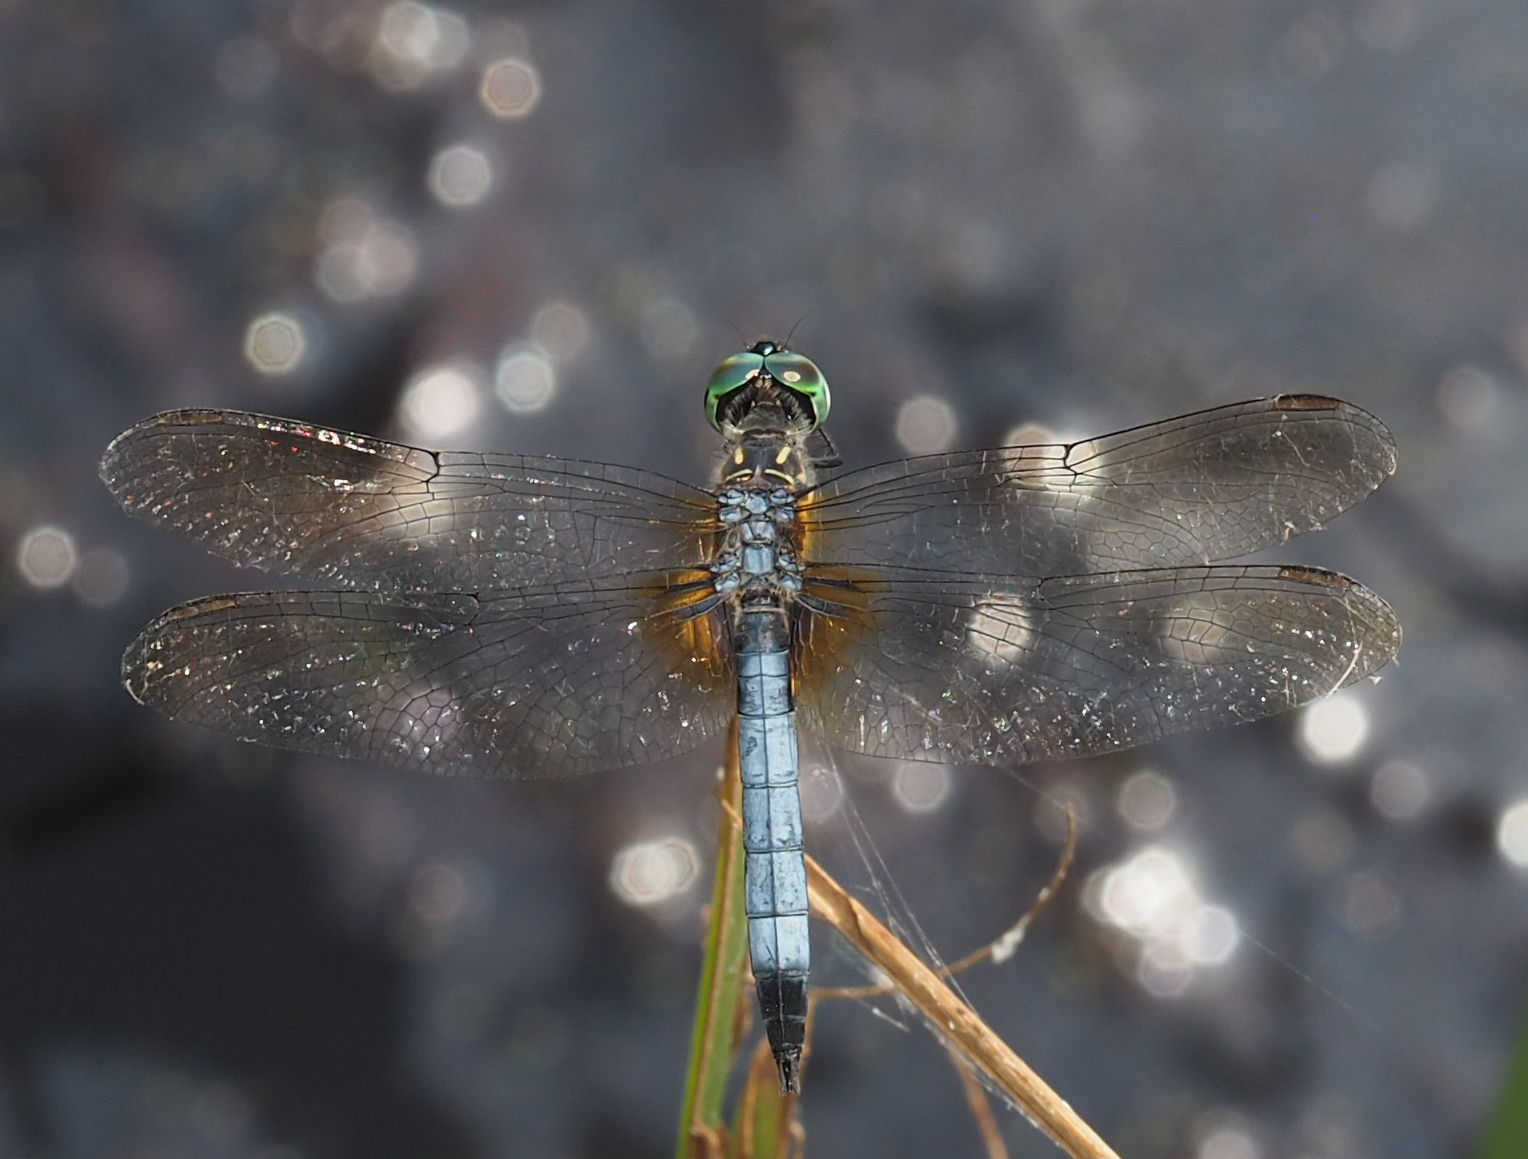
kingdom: Animalia
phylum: Arthropoda
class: Insecta
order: Odonata
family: Libellulidae
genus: Pachydiplax
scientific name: Pachydiplax longipennis
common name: Blue dasher
